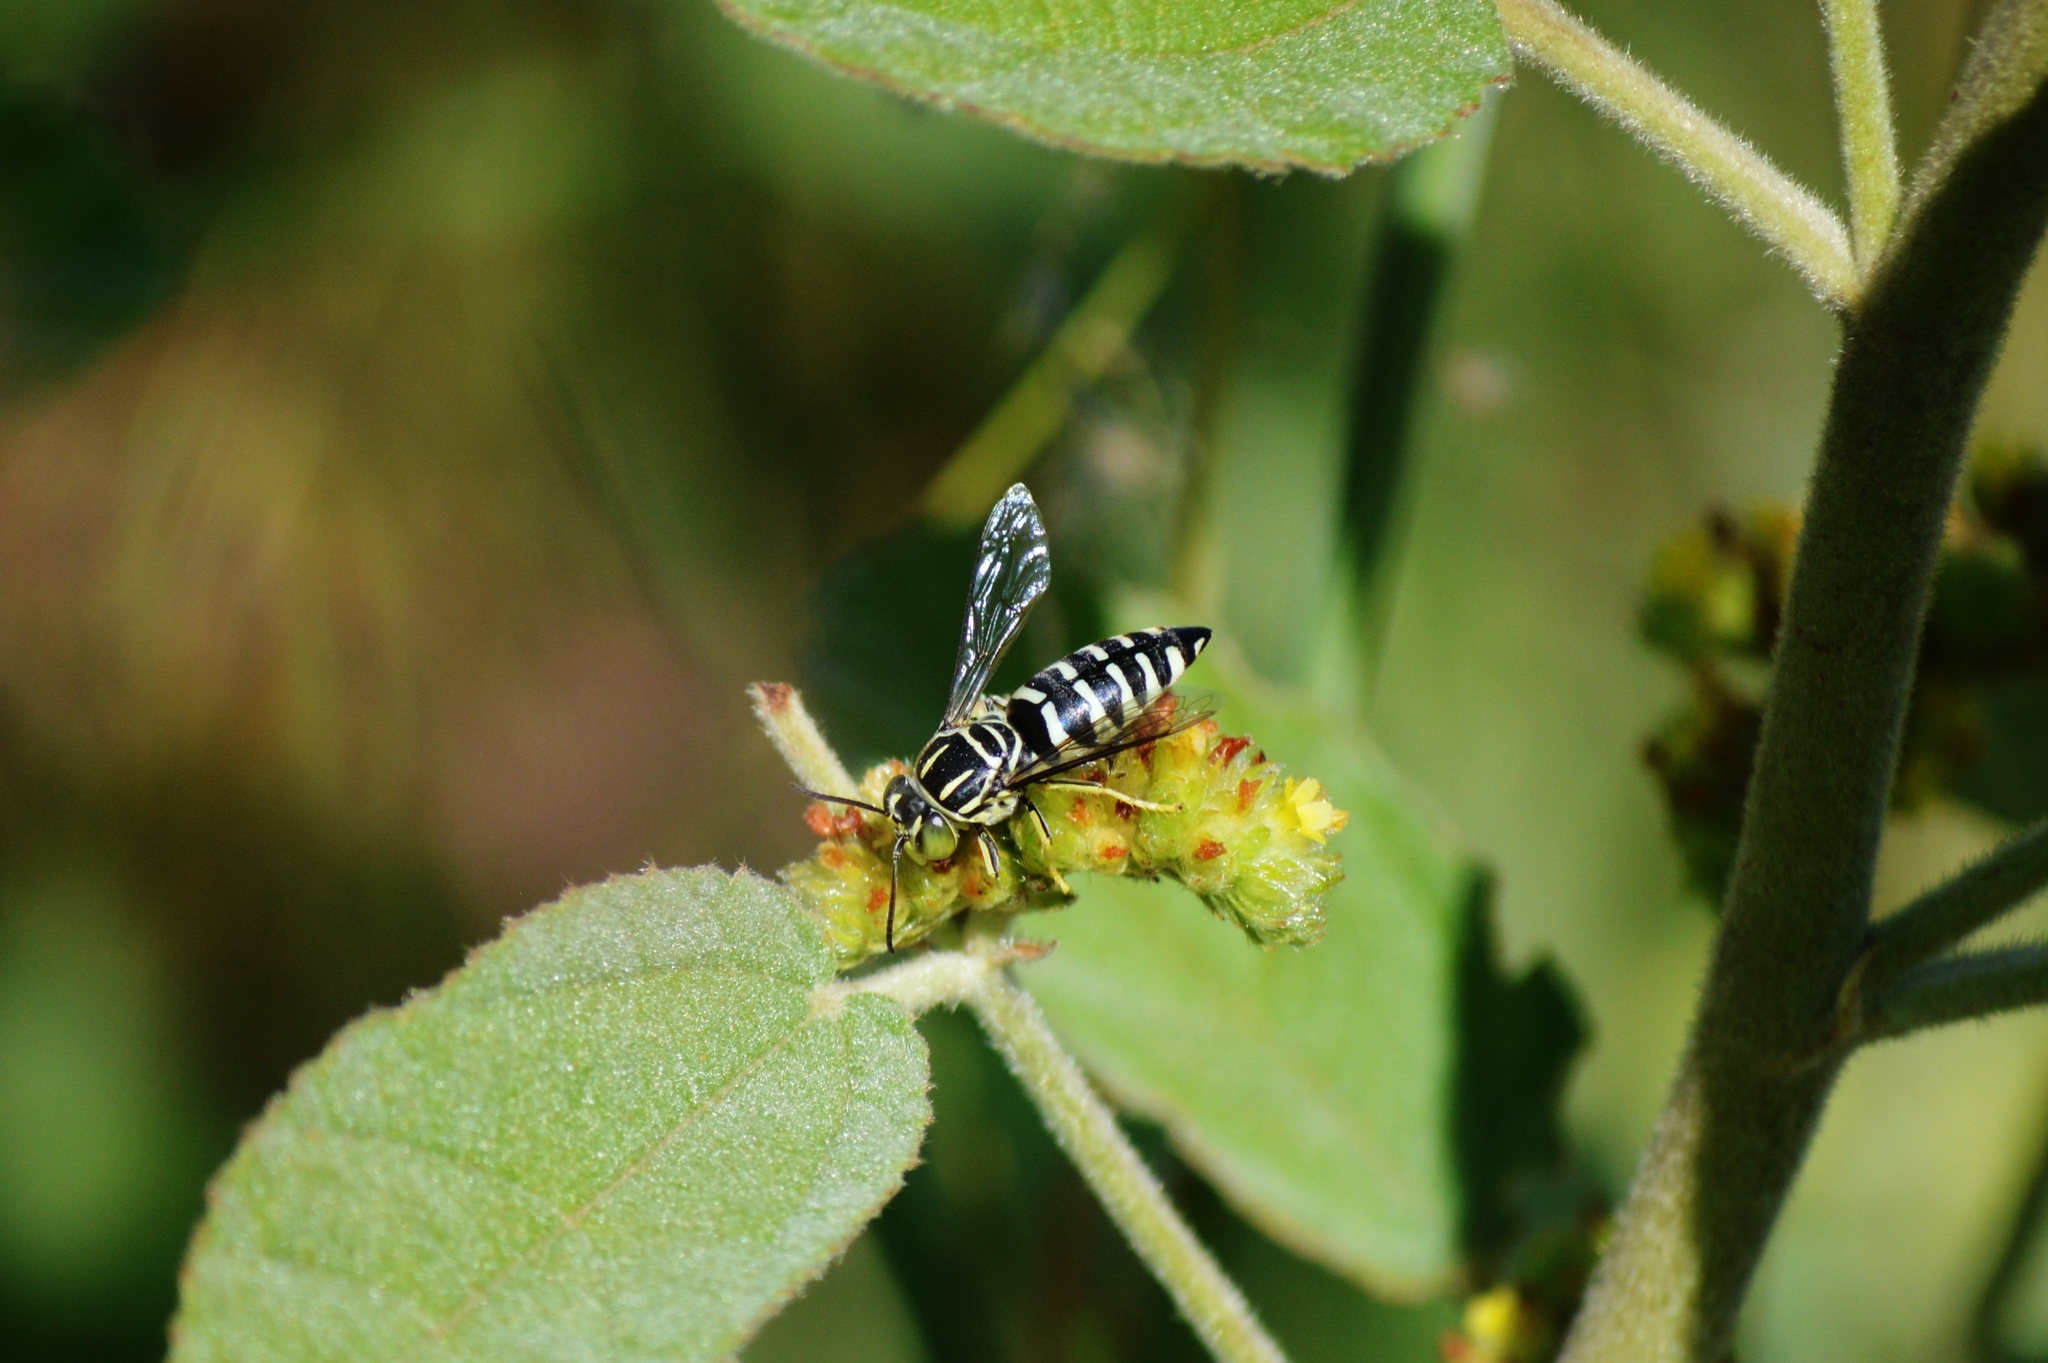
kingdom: Animalia
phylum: Arthropoda
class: Insecta
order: Hymenoptera
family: Crabronidae
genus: Bicyrtes
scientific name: Bicyrtes variegatus
